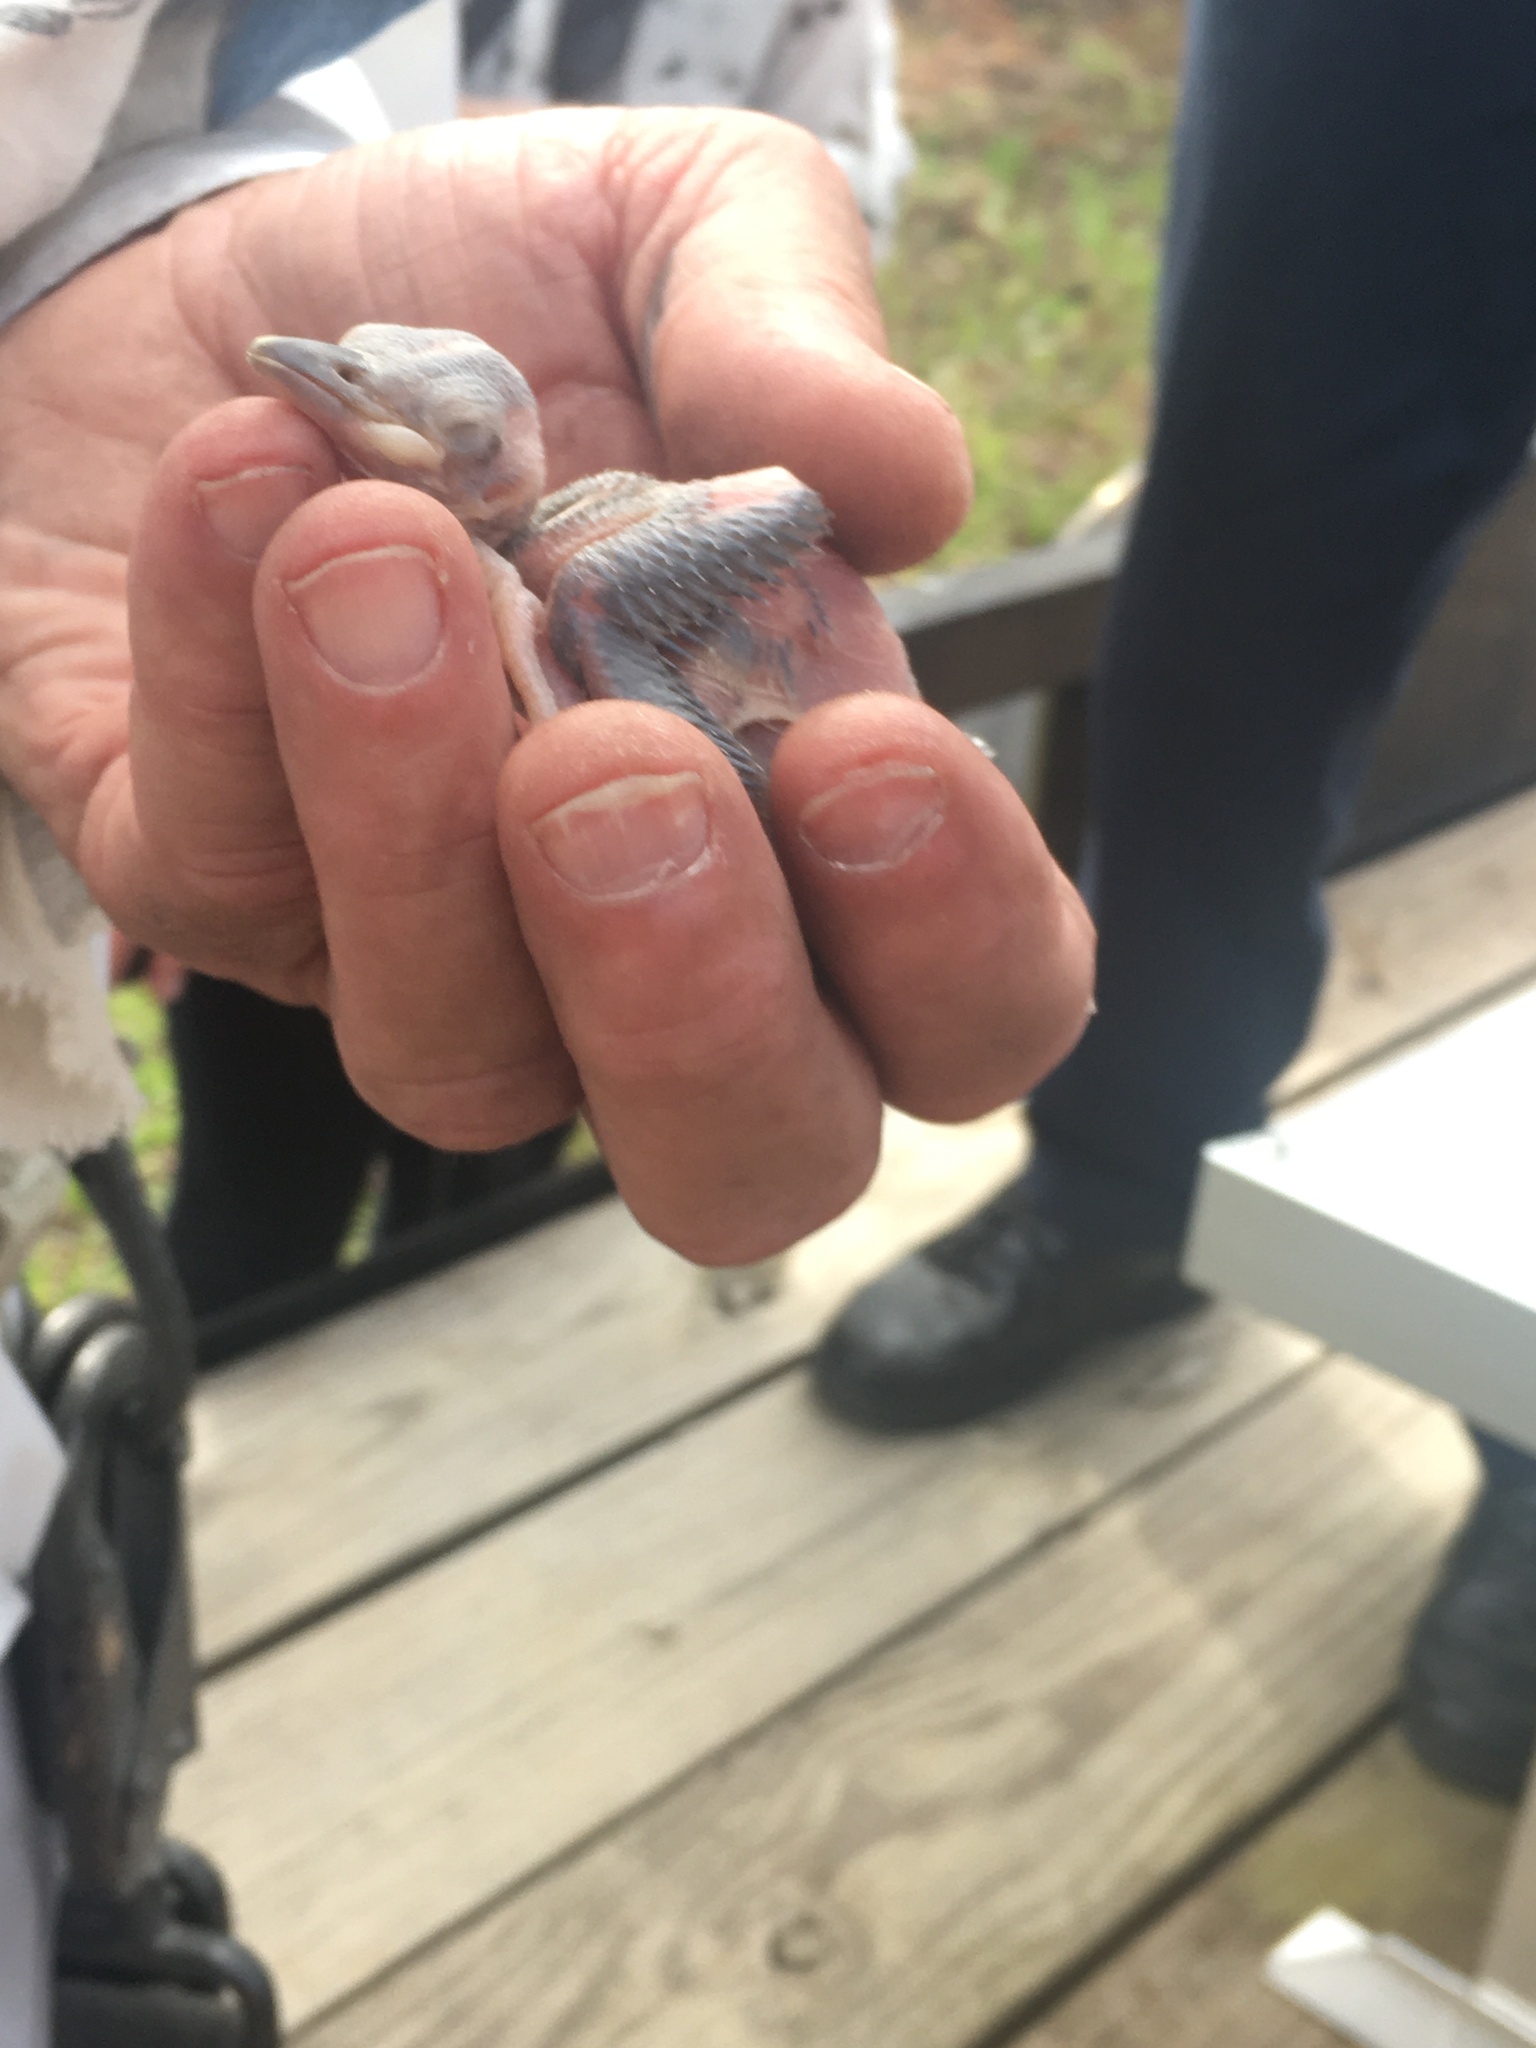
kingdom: Animalia
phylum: Chordata
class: Aves
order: Piciformes
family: Picidae
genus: Leuconotopicus
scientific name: Leuconotopicus borealis
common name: Red-cockaded woodpecker
